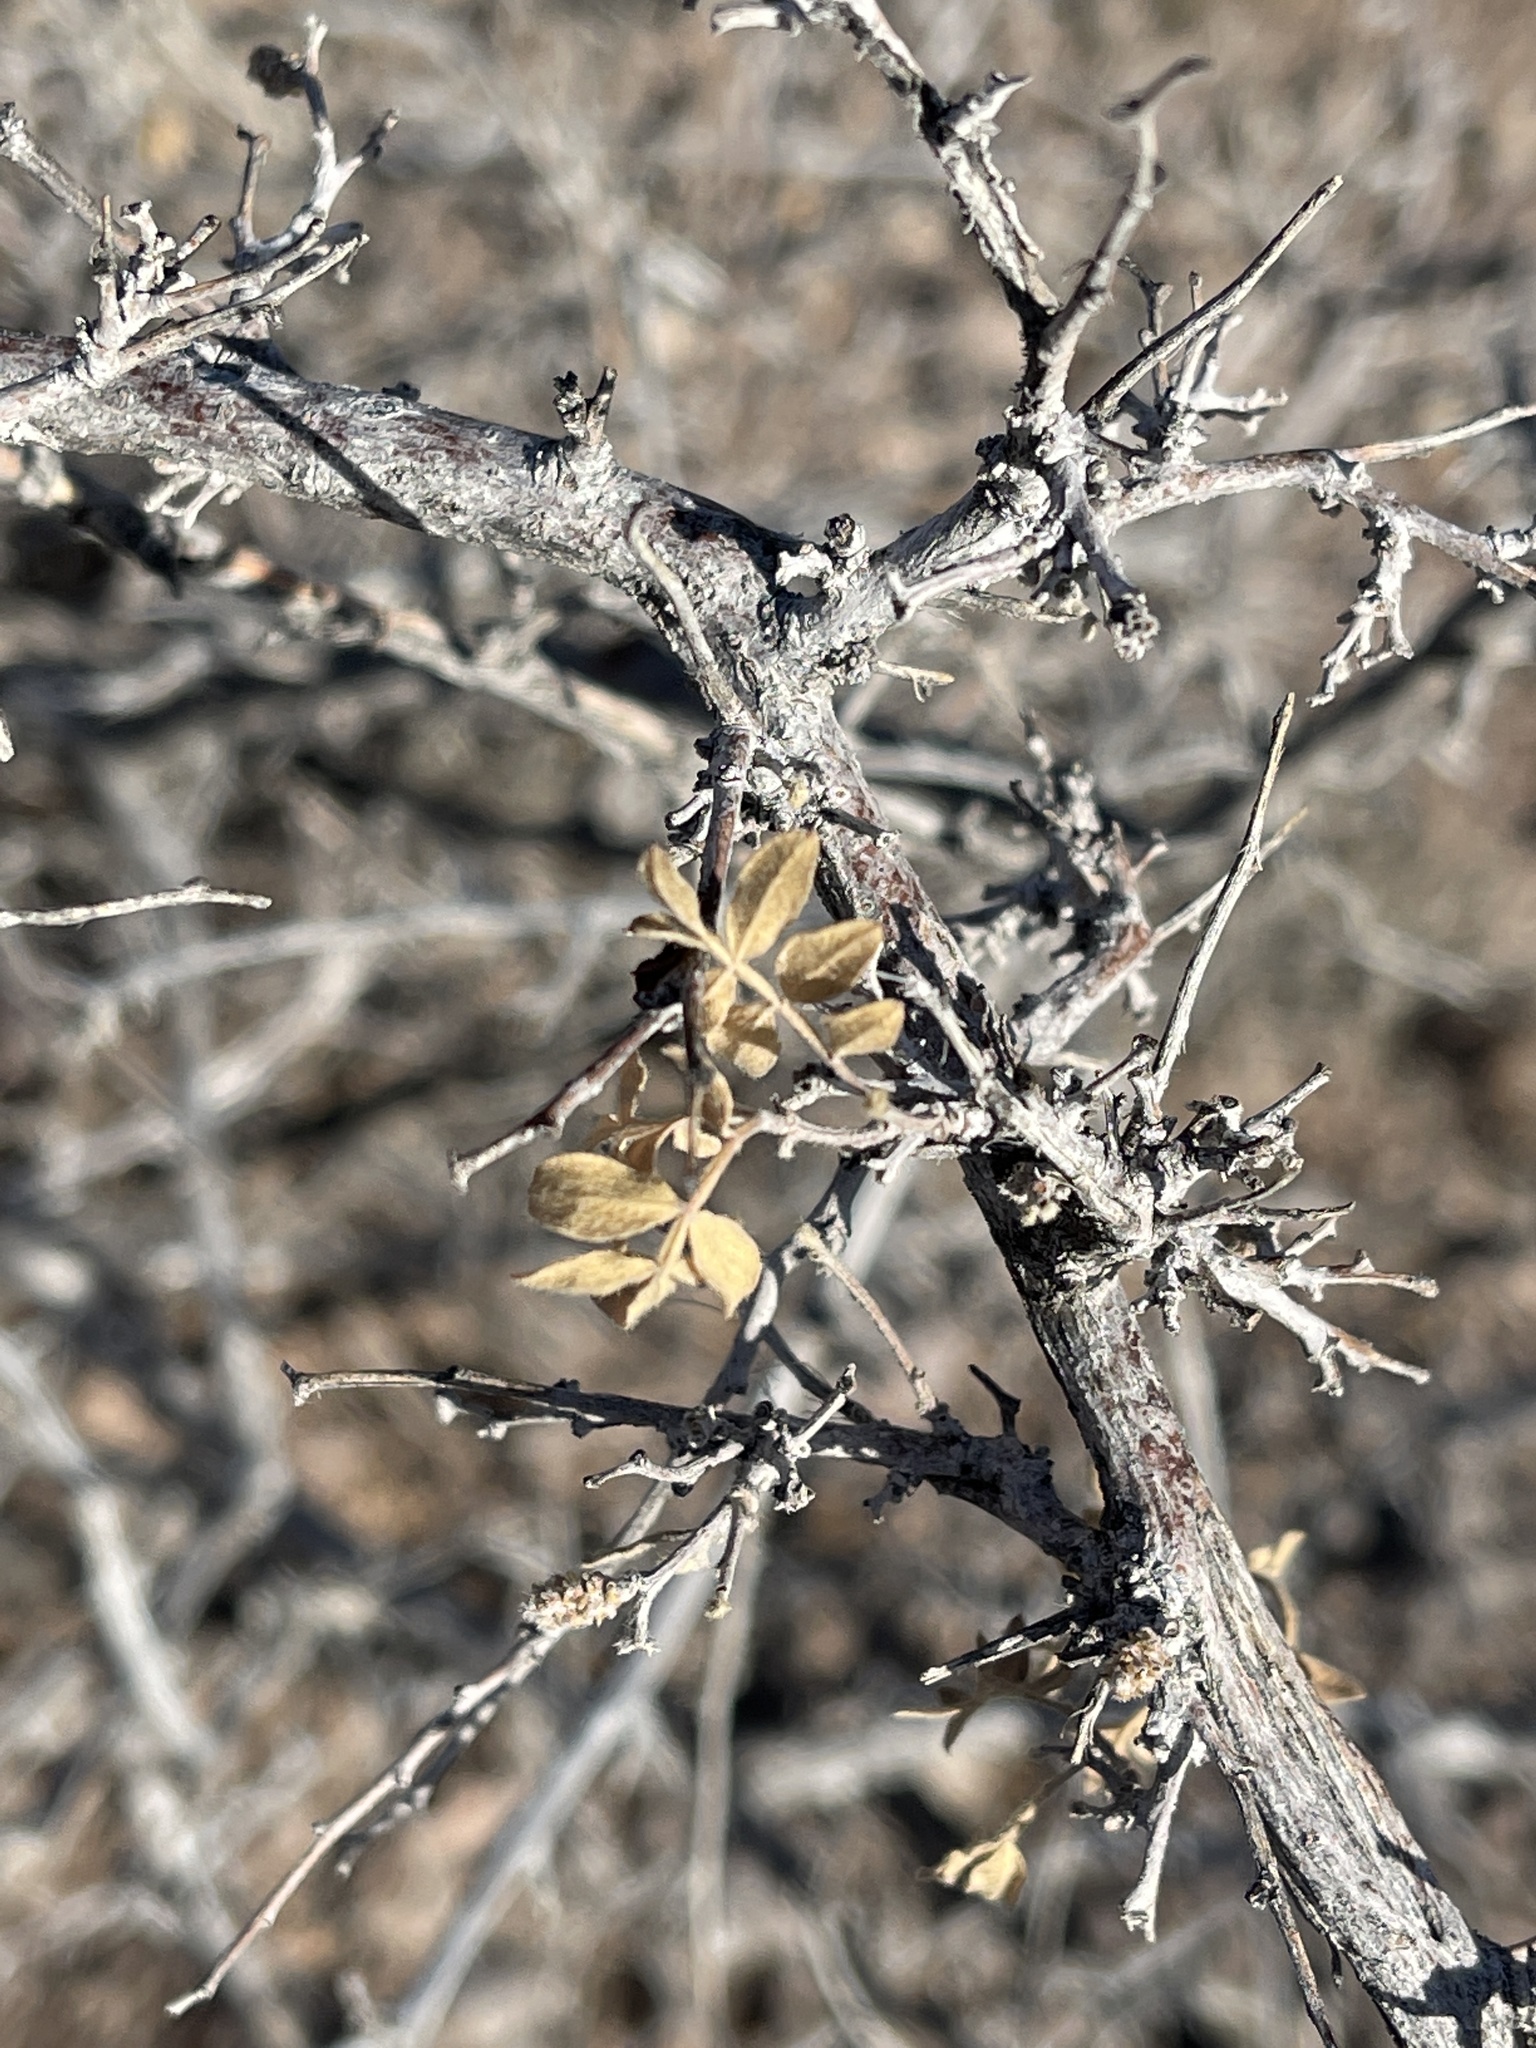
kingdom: Plantae
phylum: Tracheophyta
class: Magnoliopsida
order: Sapindales
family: Anacardiaceae
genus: Rhus
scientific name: Rhus microphylla
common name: Desert sumac
